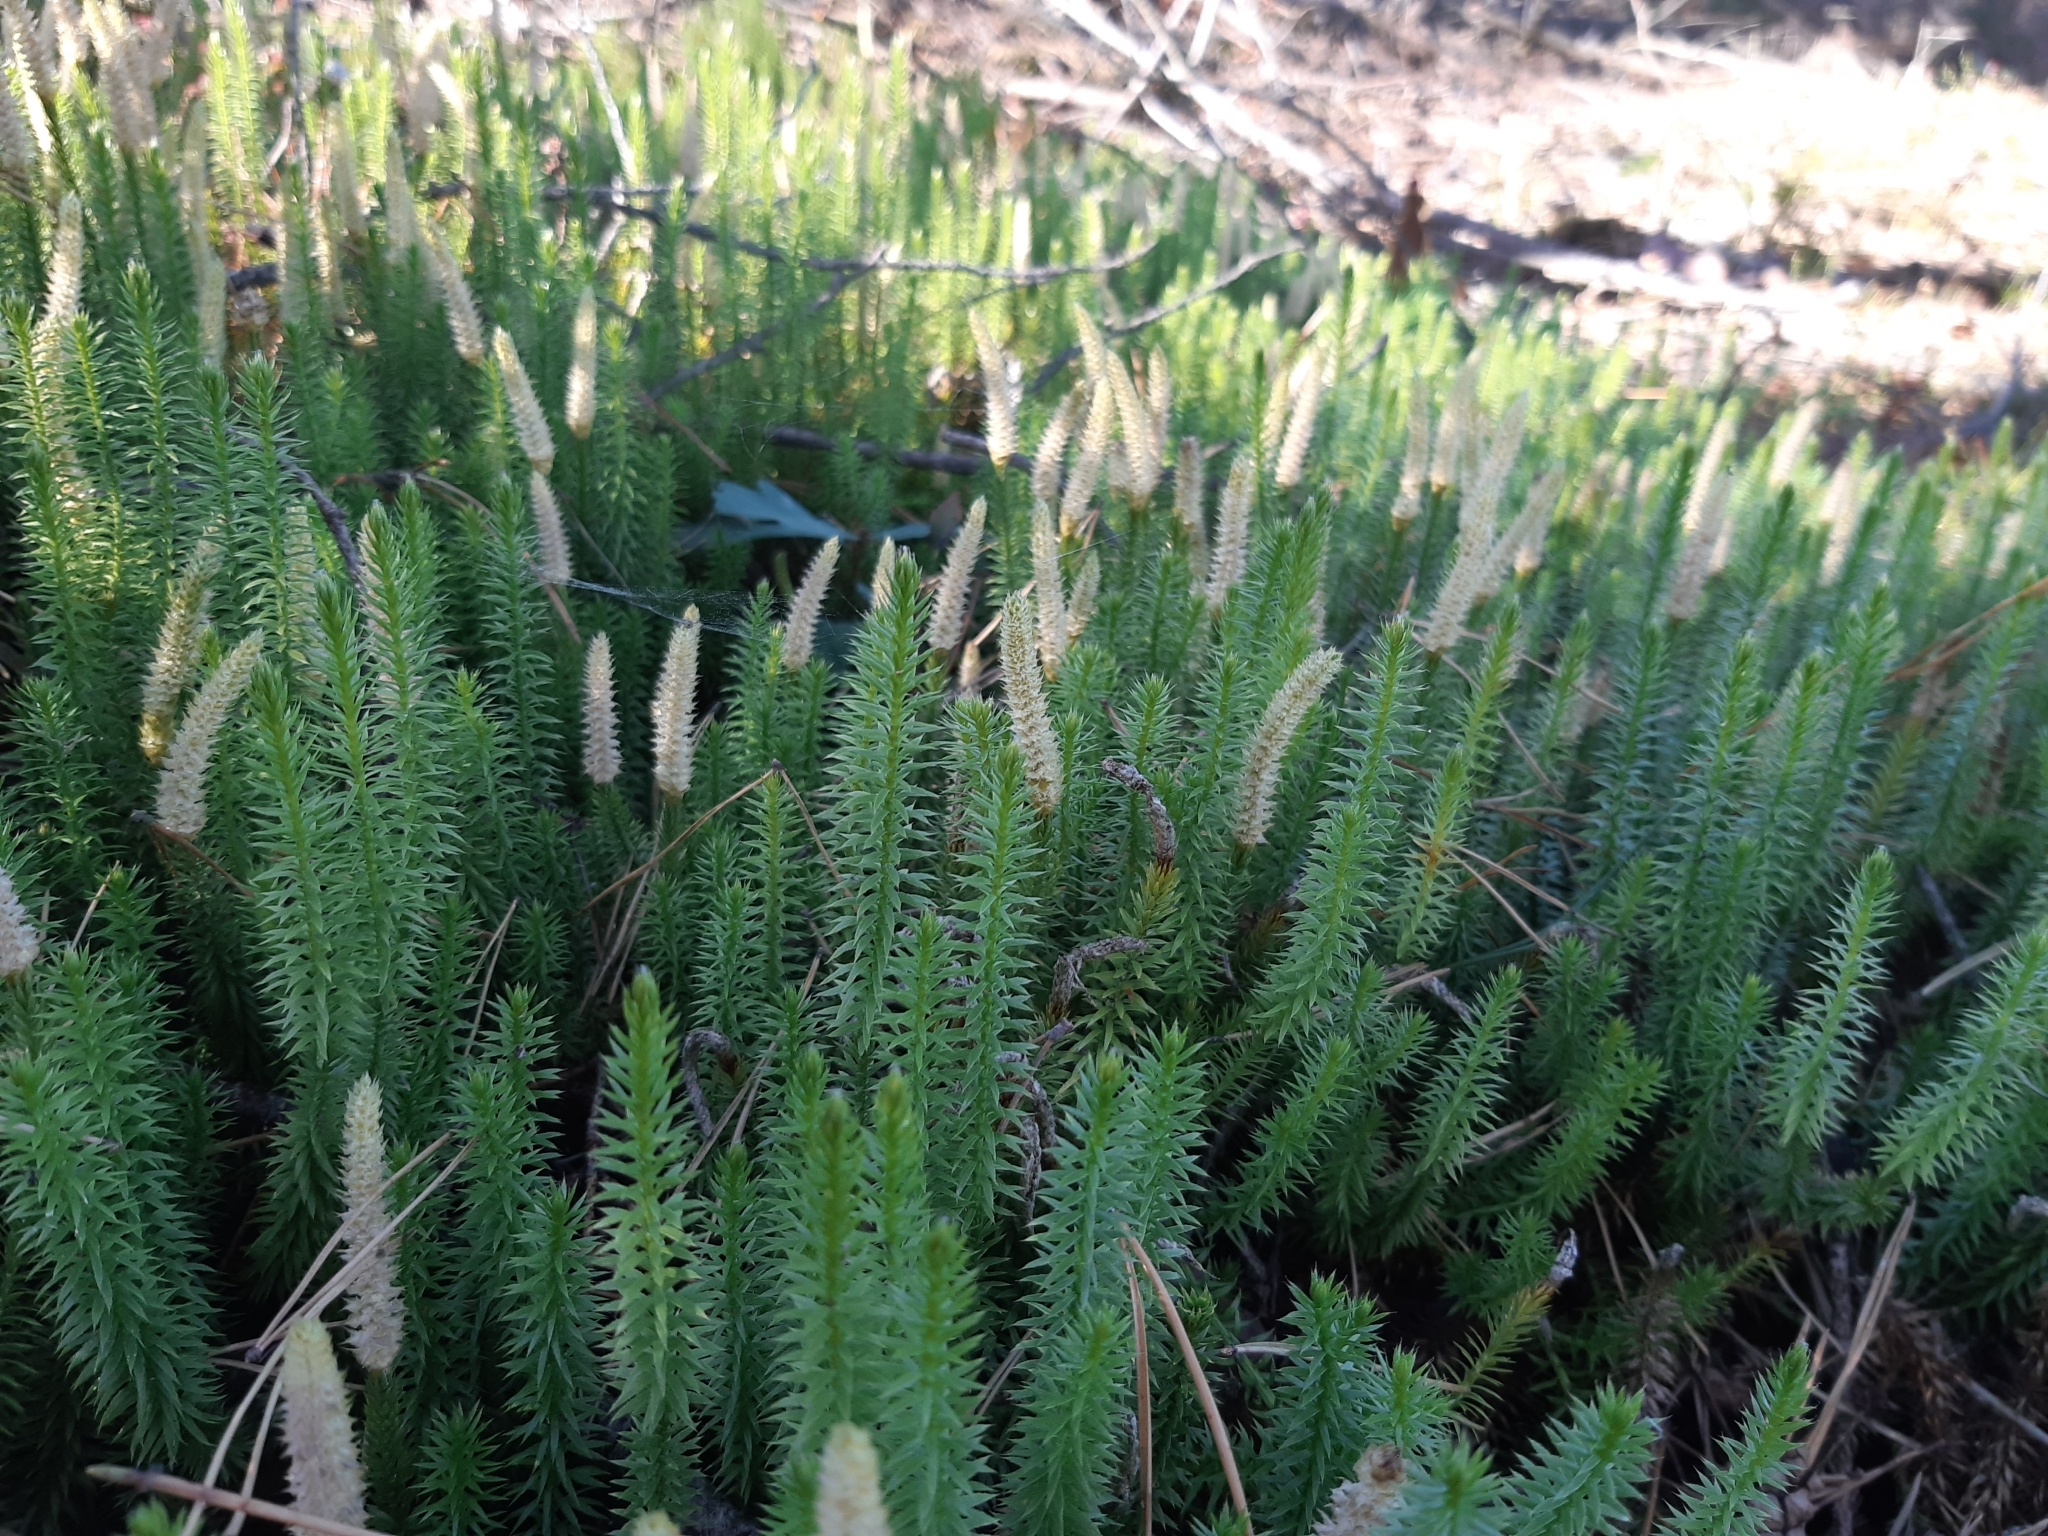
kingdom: Plantae
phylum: Tracheophyta
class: Lycopodiopsida
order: Lycopodiales
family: Lycopodiaceae
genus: Spinulum
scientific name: Spinulum annotinum
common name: Interrupted club-moss
